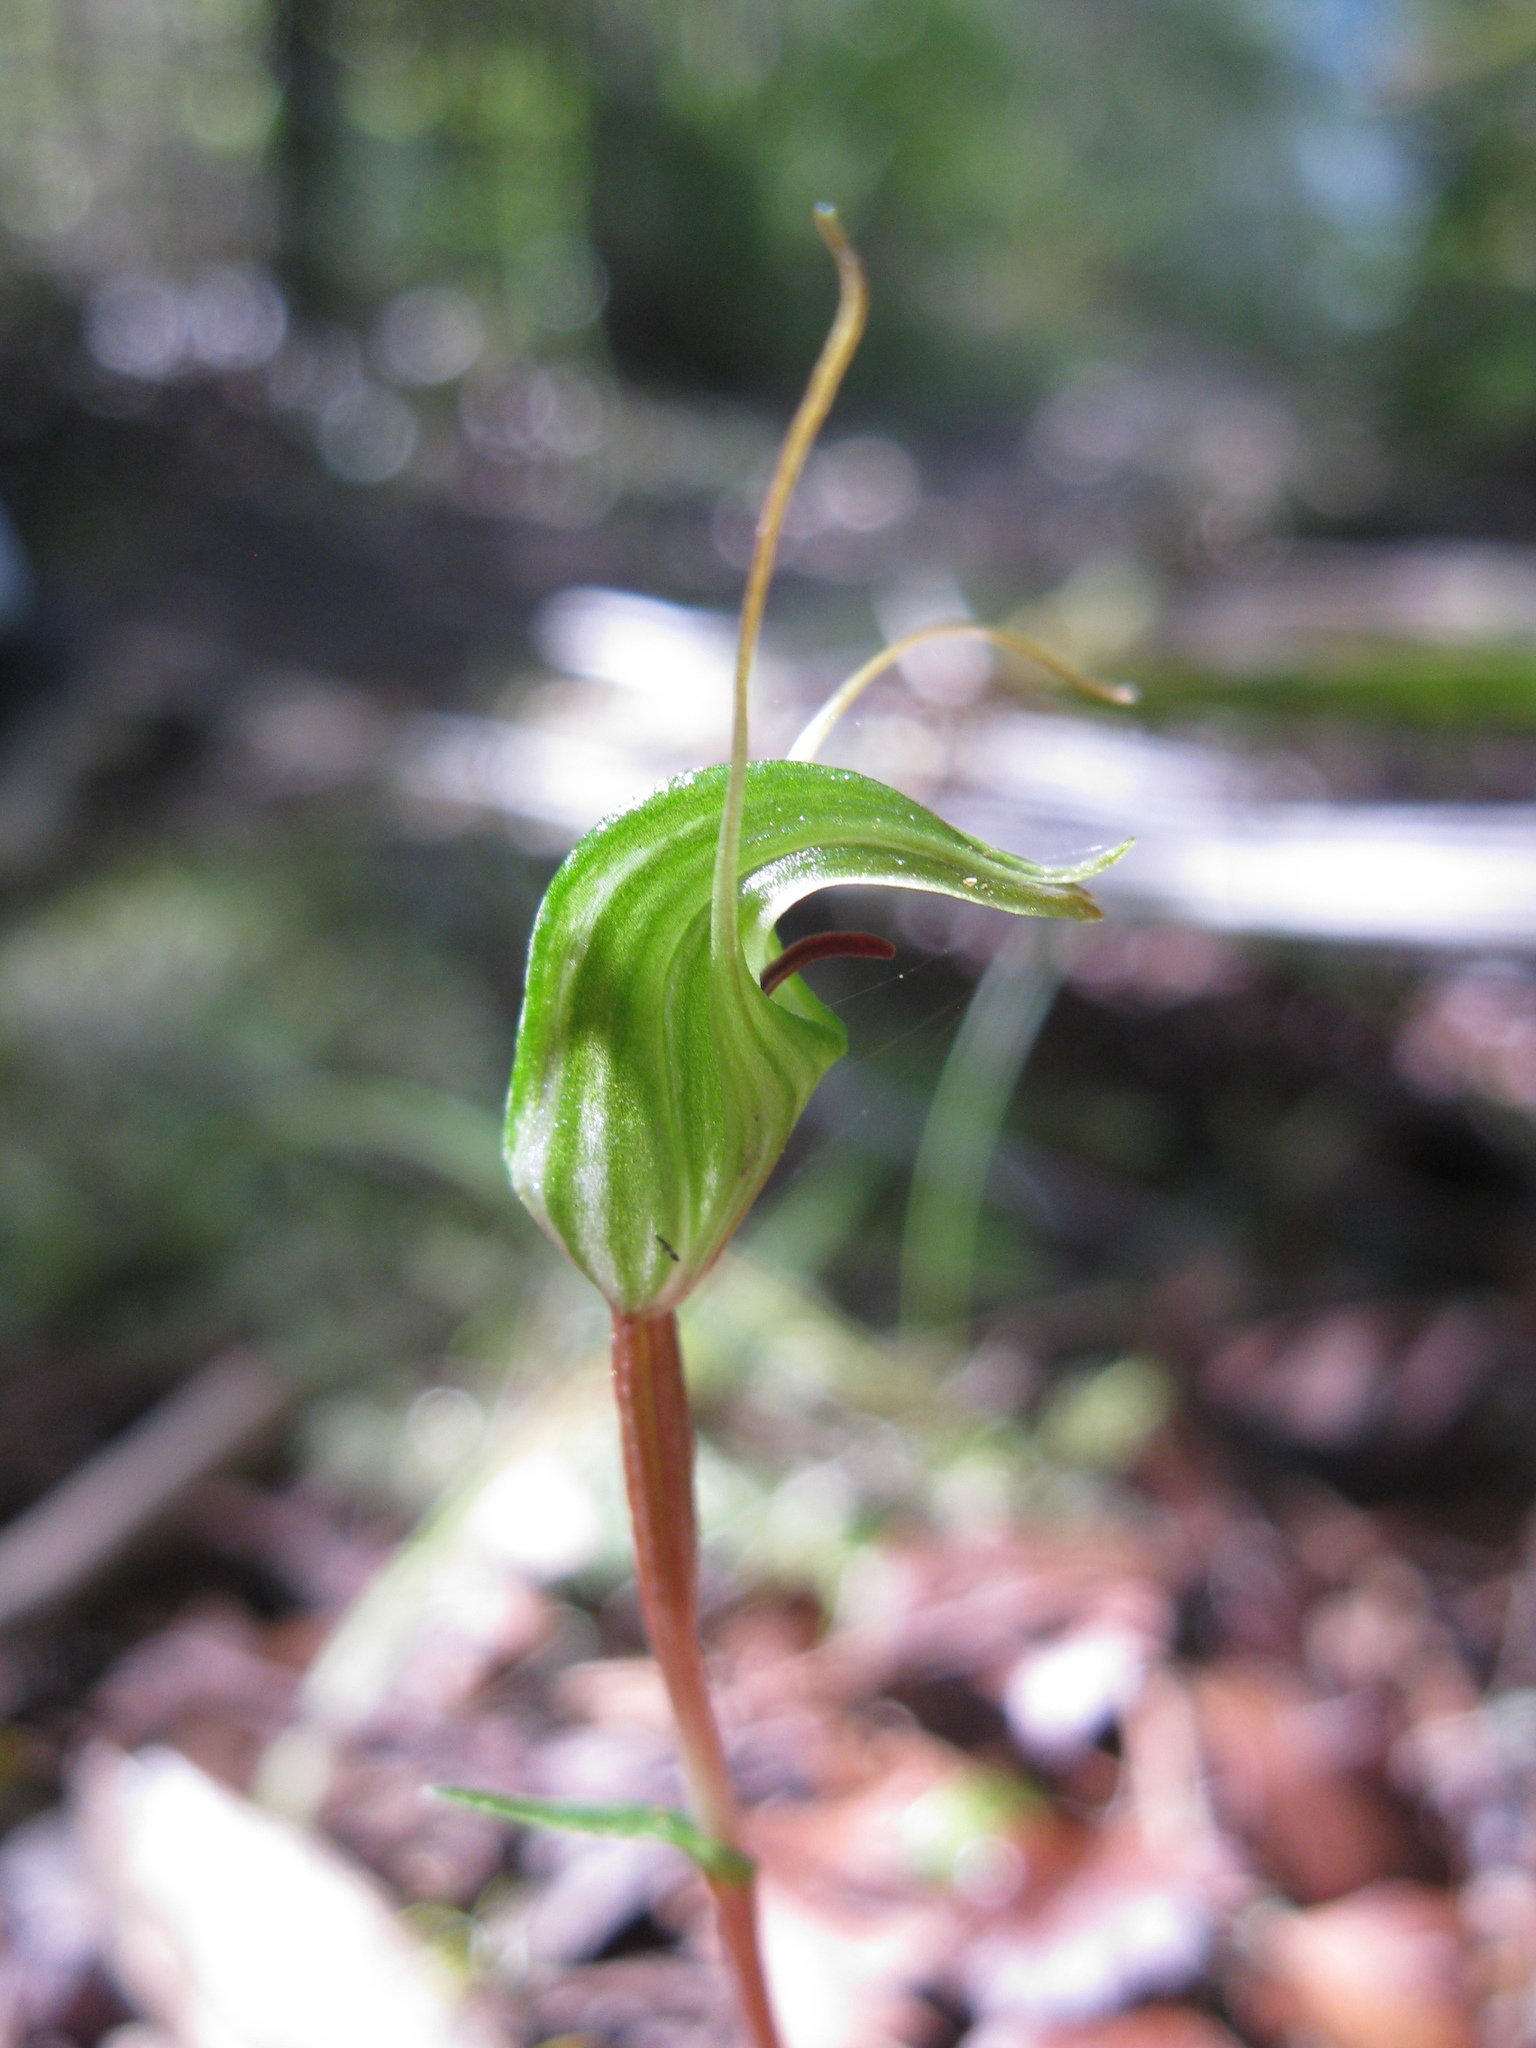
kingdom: Plantae
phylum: Tracheophyta
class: Liliopsida
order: Asparagales
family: Orchidaceae
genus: Pterostylis
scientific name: Pterostylis trullifolia
